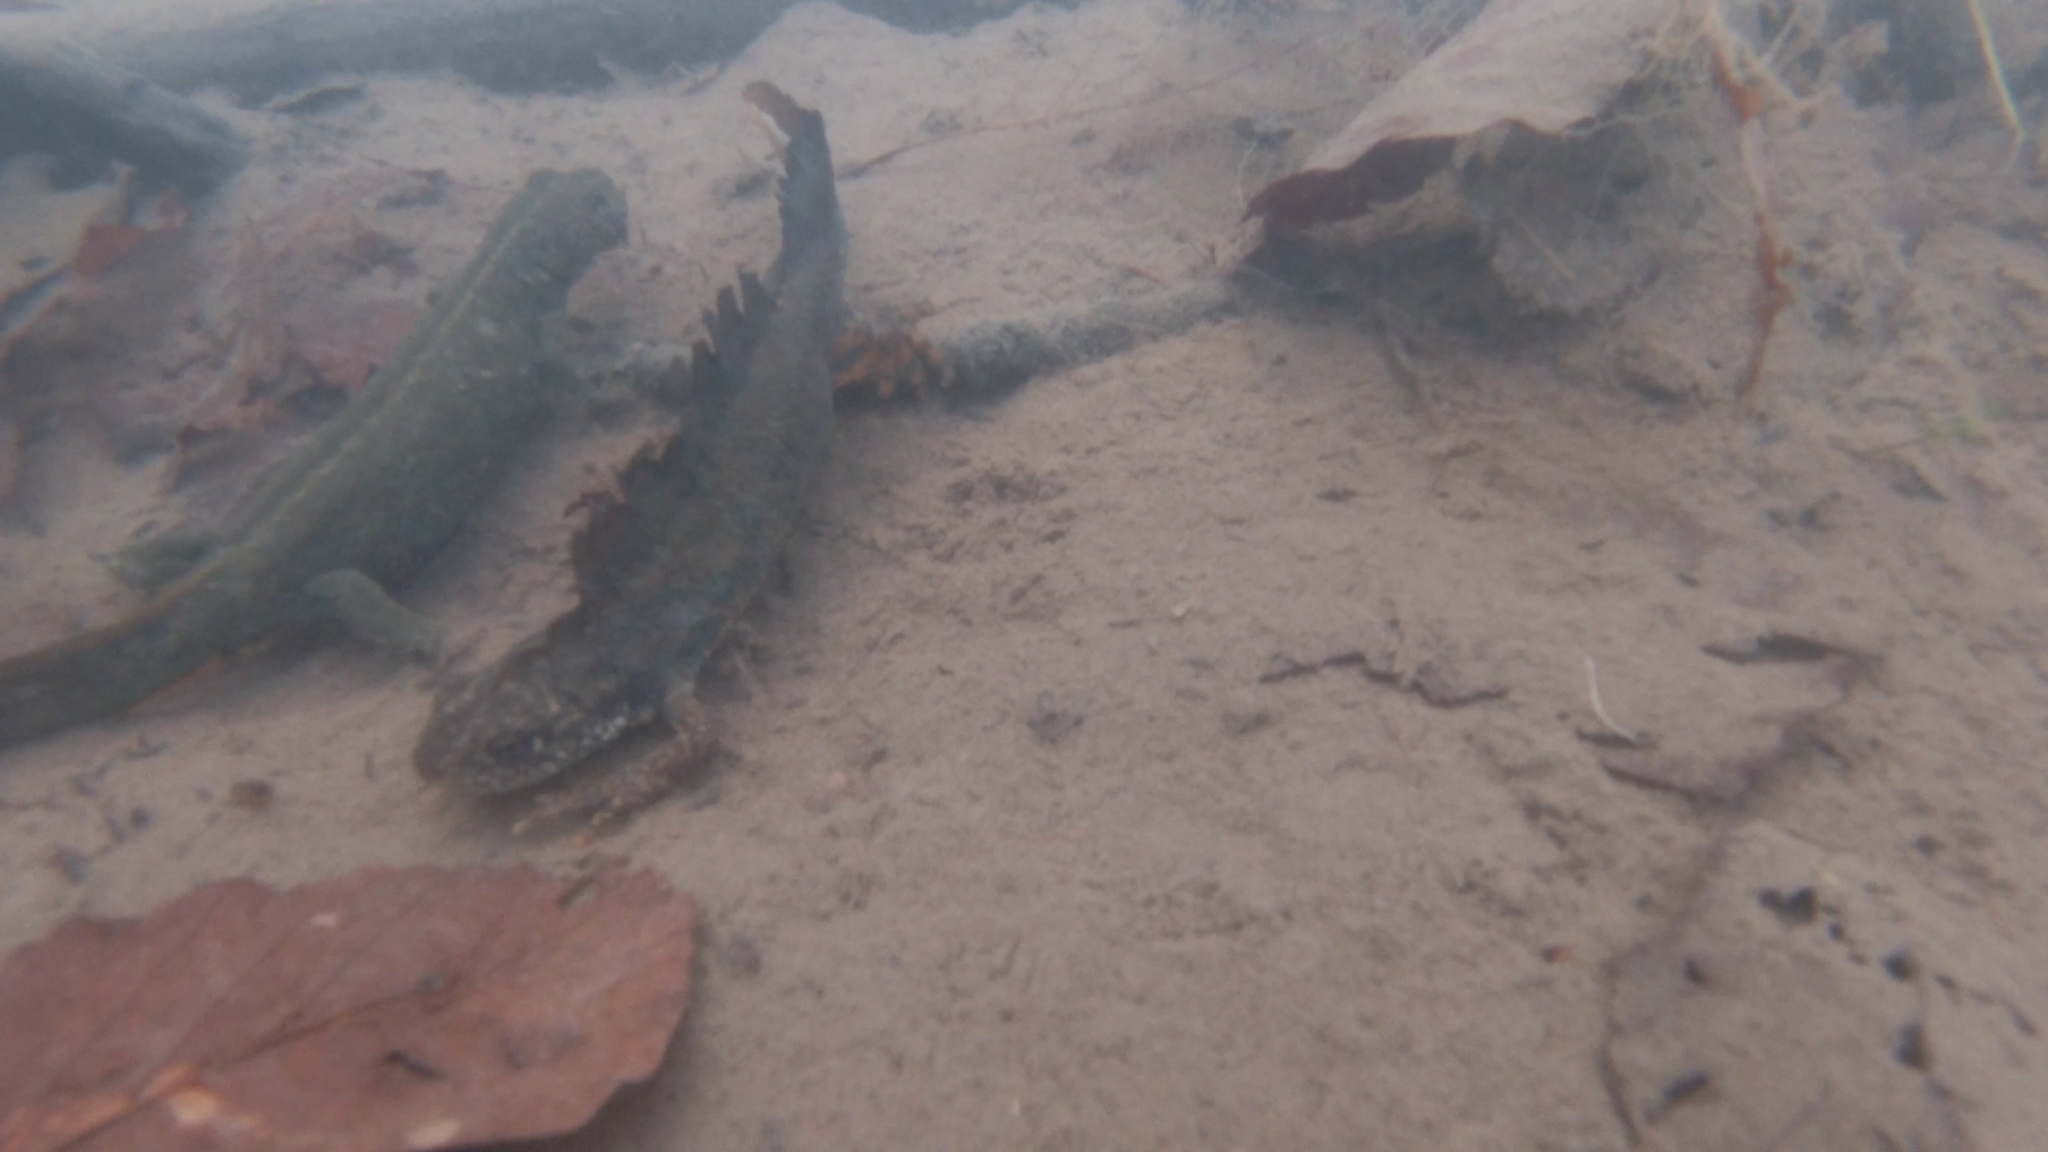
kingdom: Animalia
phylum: Chordata
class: Amphibia
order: Caudata
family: Salamandridae
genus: Triturus
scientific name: Triturus carnifex
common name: Italian crested newt
